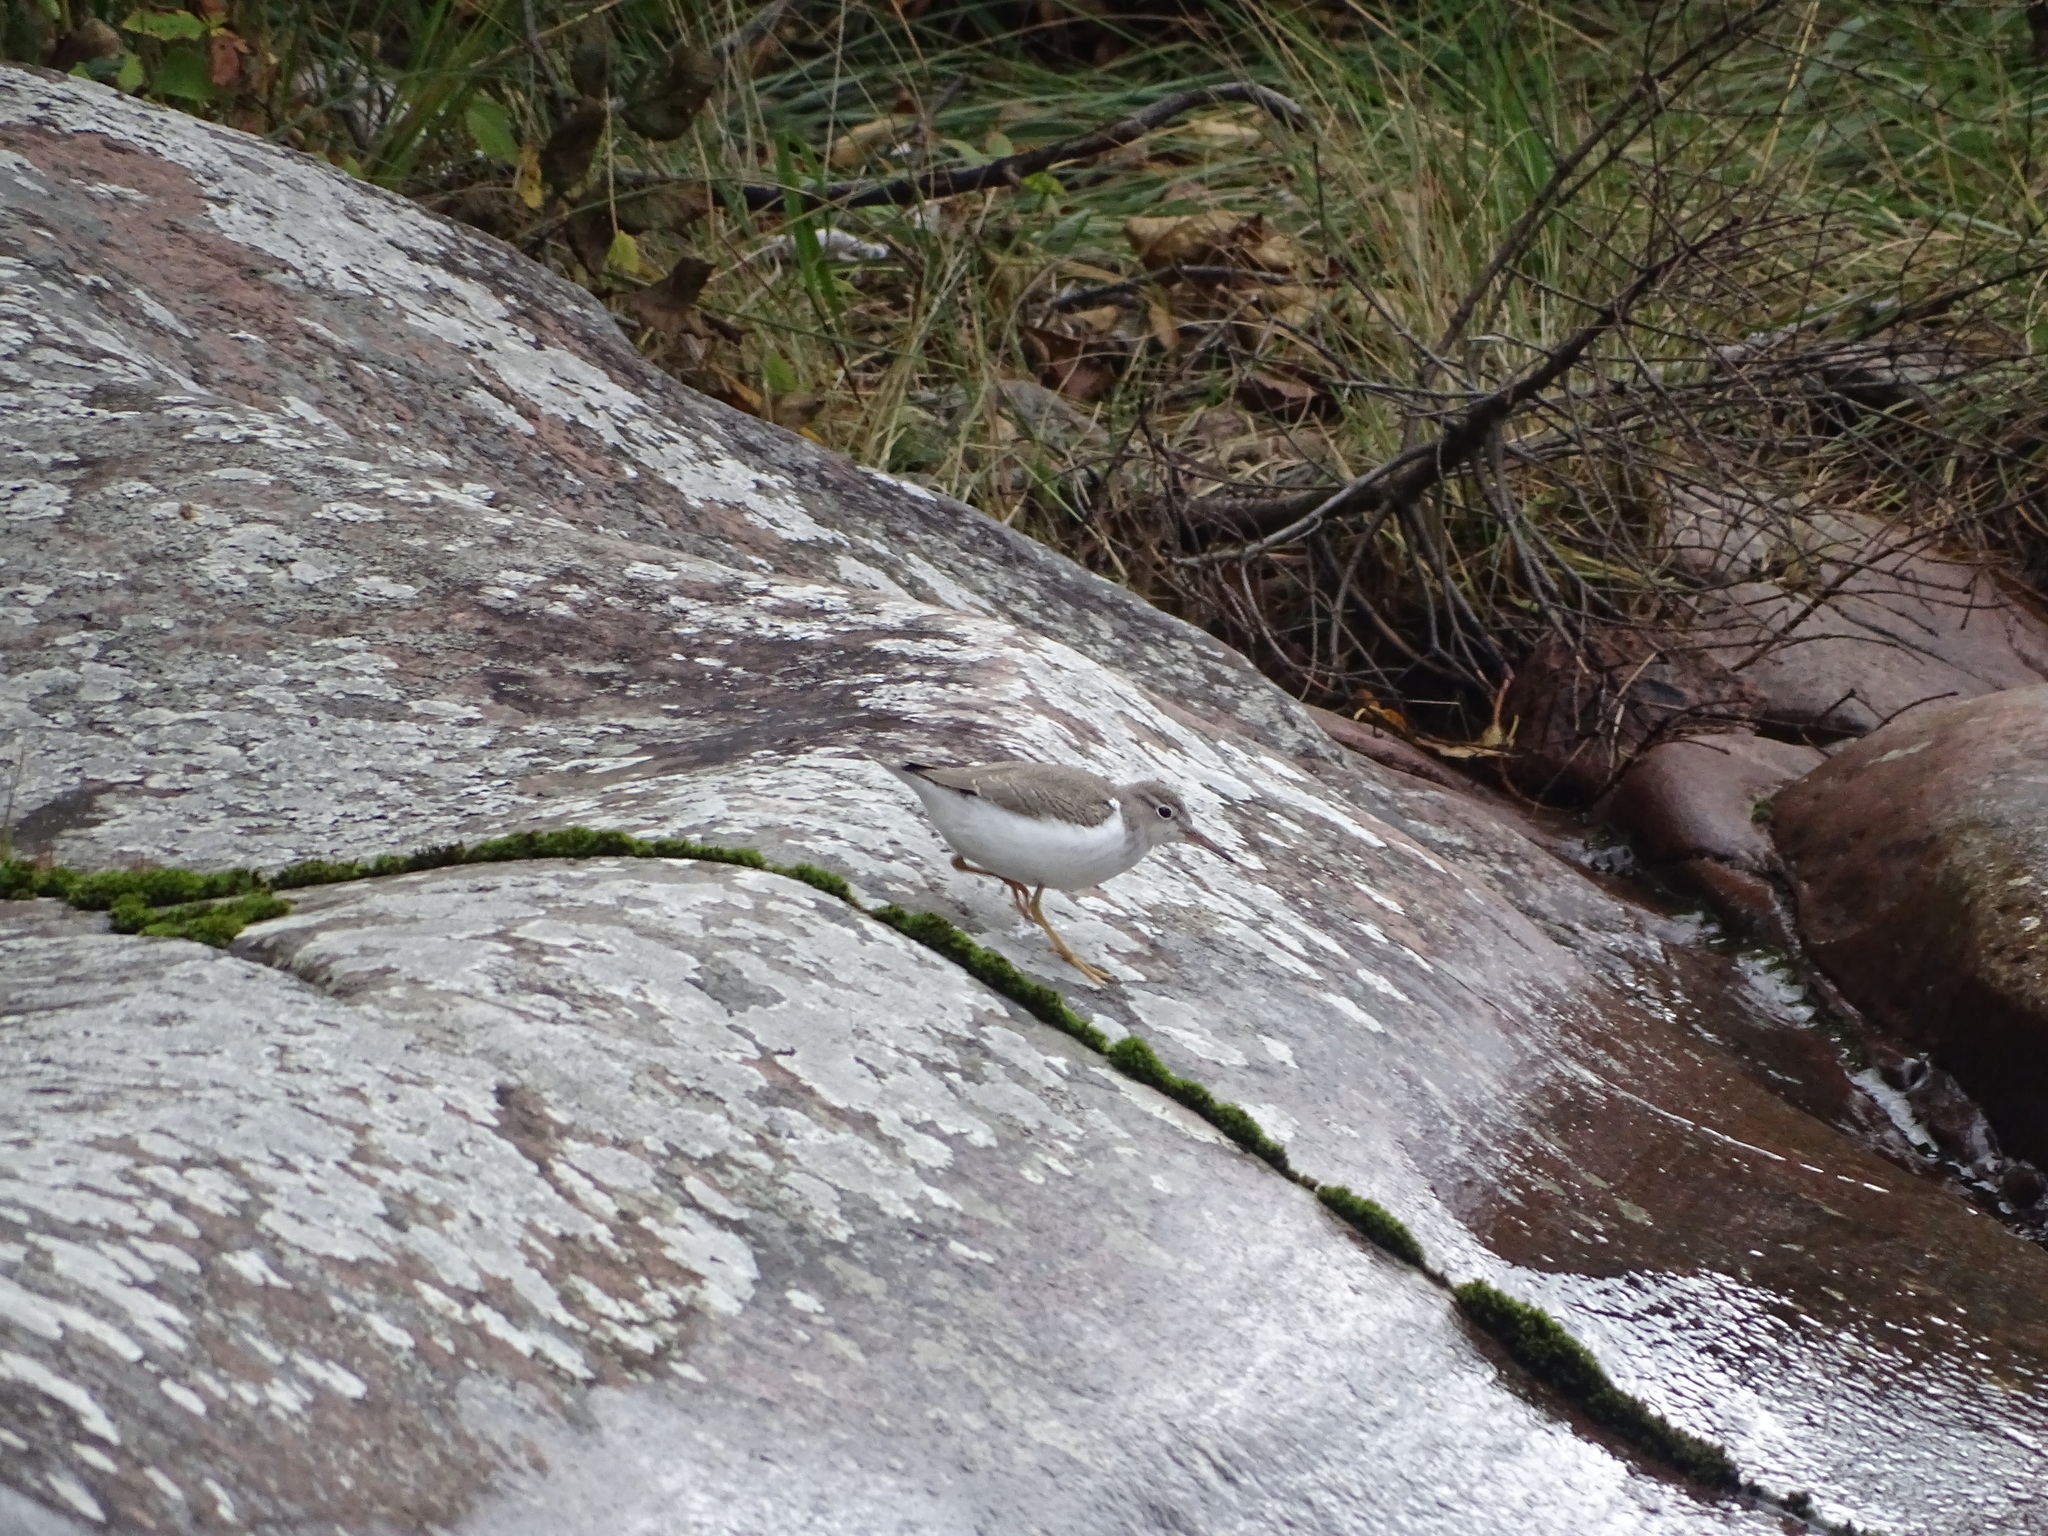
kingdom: Animalia
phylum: Chordata
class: Aves
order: Charadriiformes
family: Scolopacidae
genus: Actitis
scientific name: Actitis macularius
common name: Spotted sandpiper
